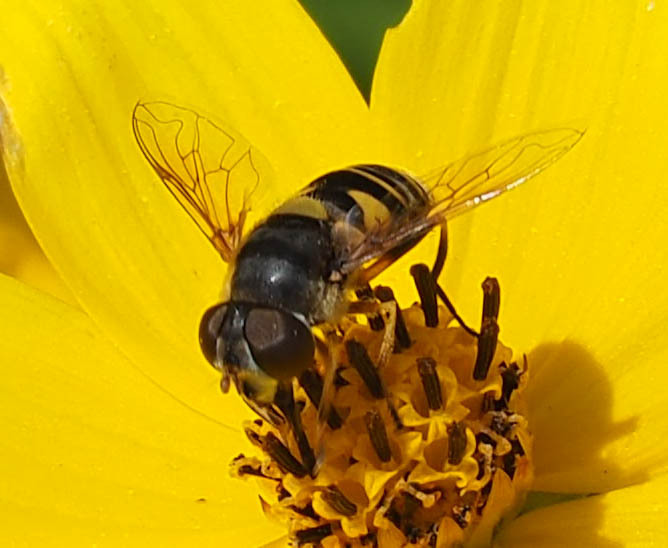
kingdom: Animalia
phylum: Arthropoda
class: Insecta
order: Diptera
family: Syrphidae
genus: Eristalis
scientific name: Eristalis transversa
